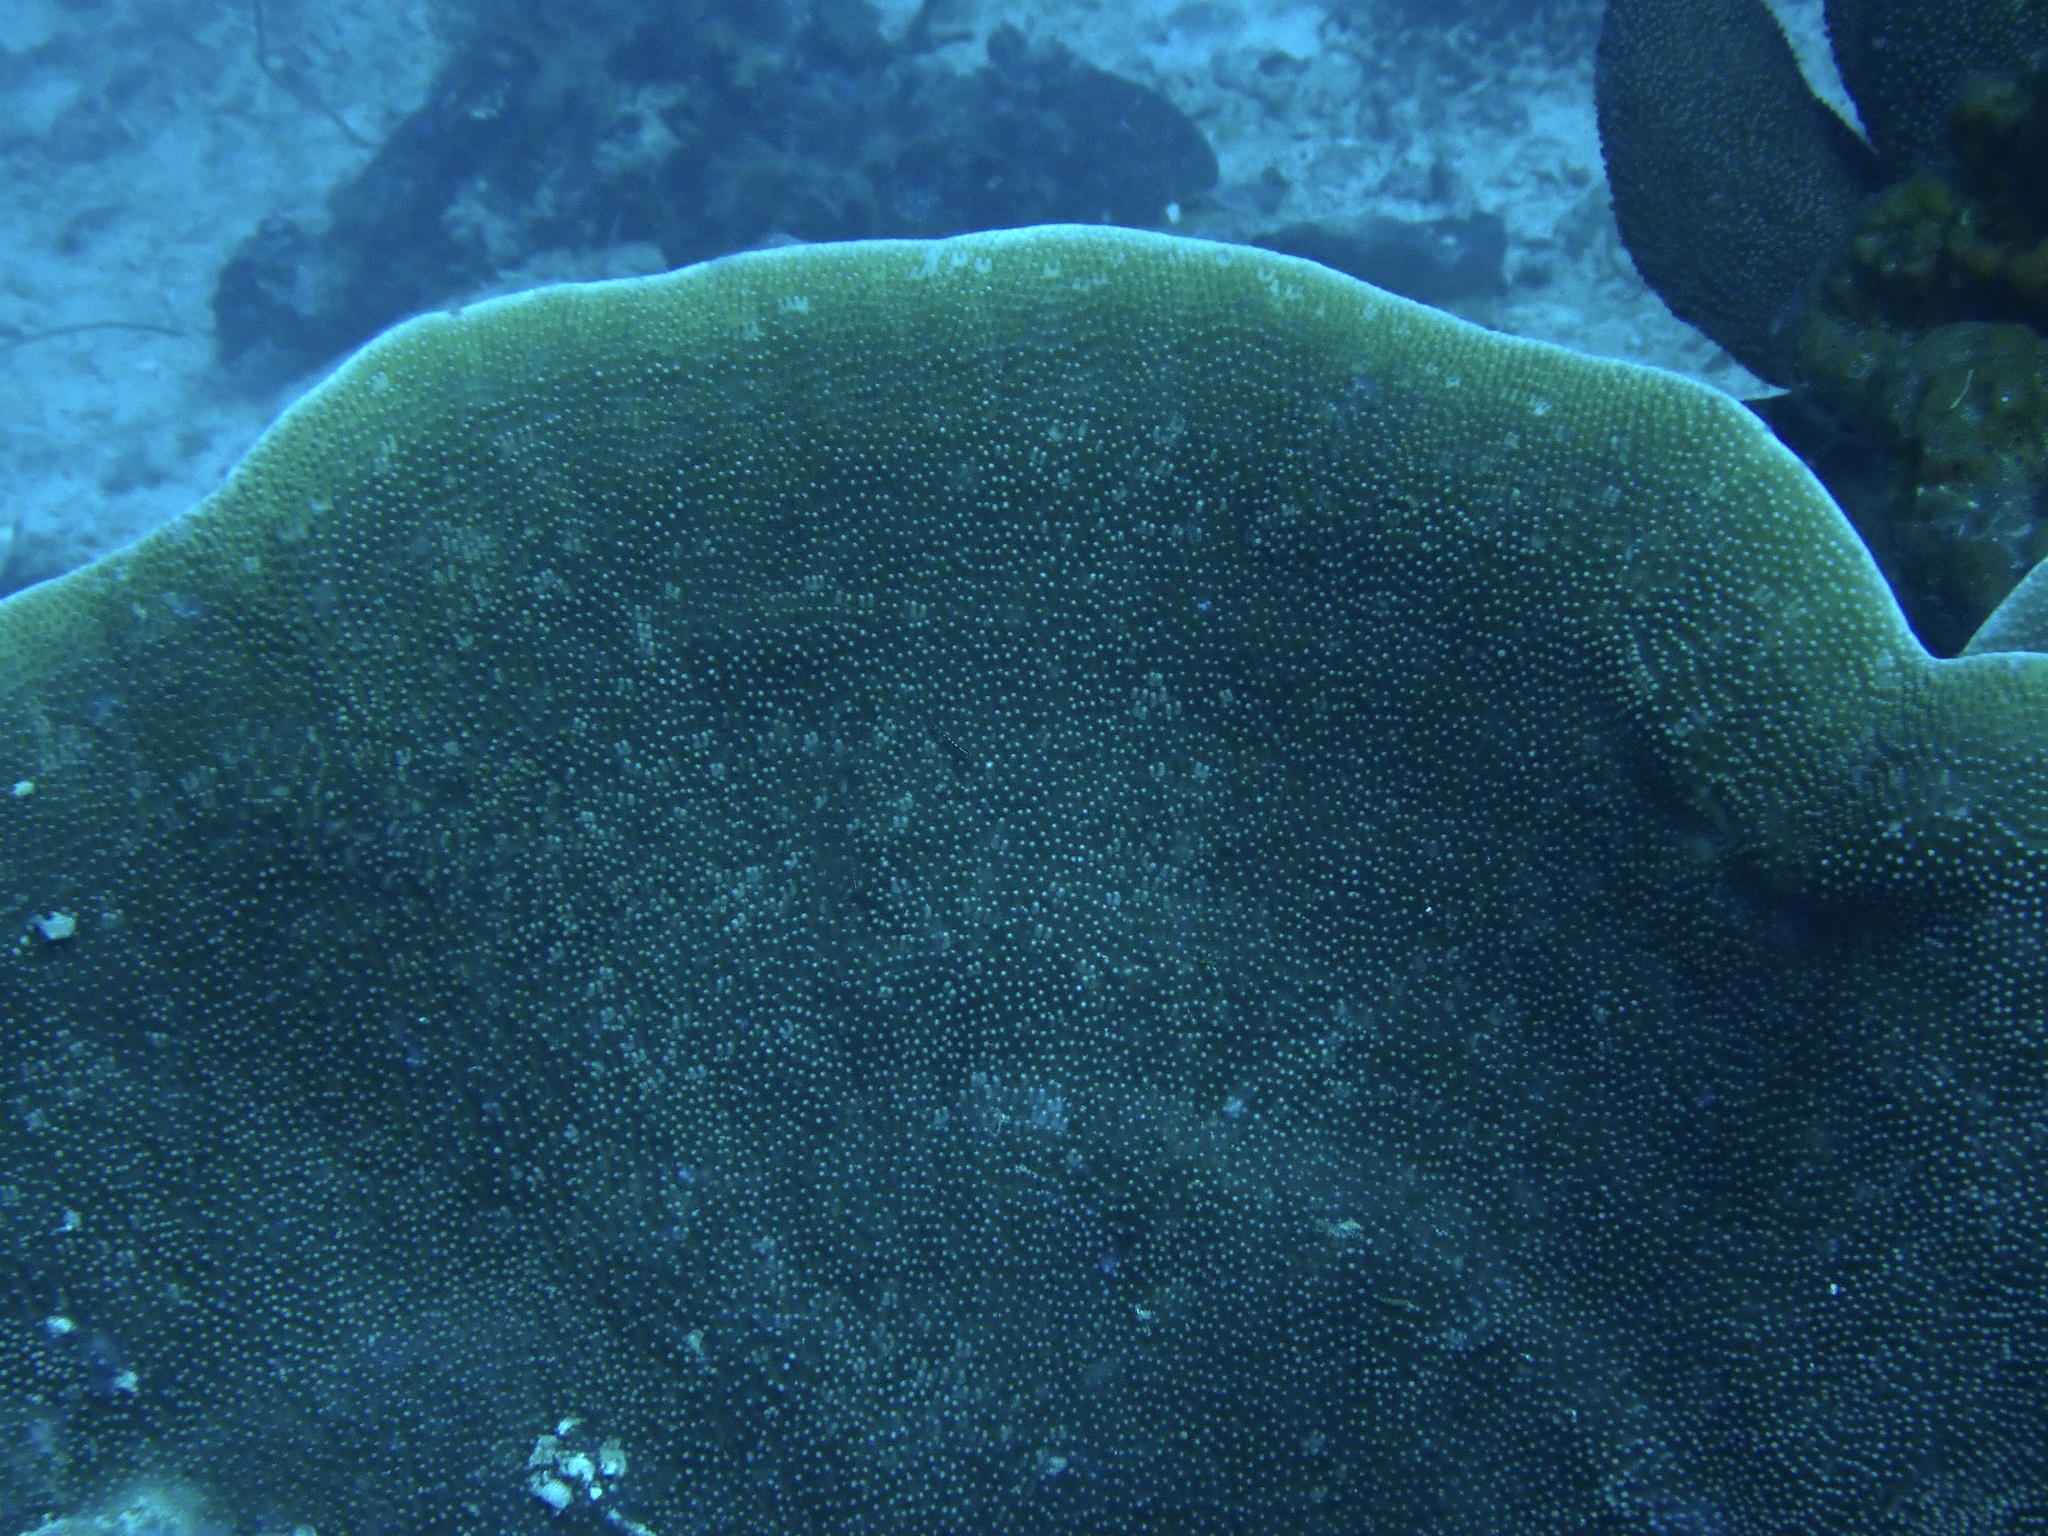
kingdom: Animalia
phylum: Cnidaria
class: Anthozoa
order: Scleractinia
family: Dendrophylliidae
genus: Turbinaria
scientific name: Turbinaria mesenterina
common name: Disc coral
